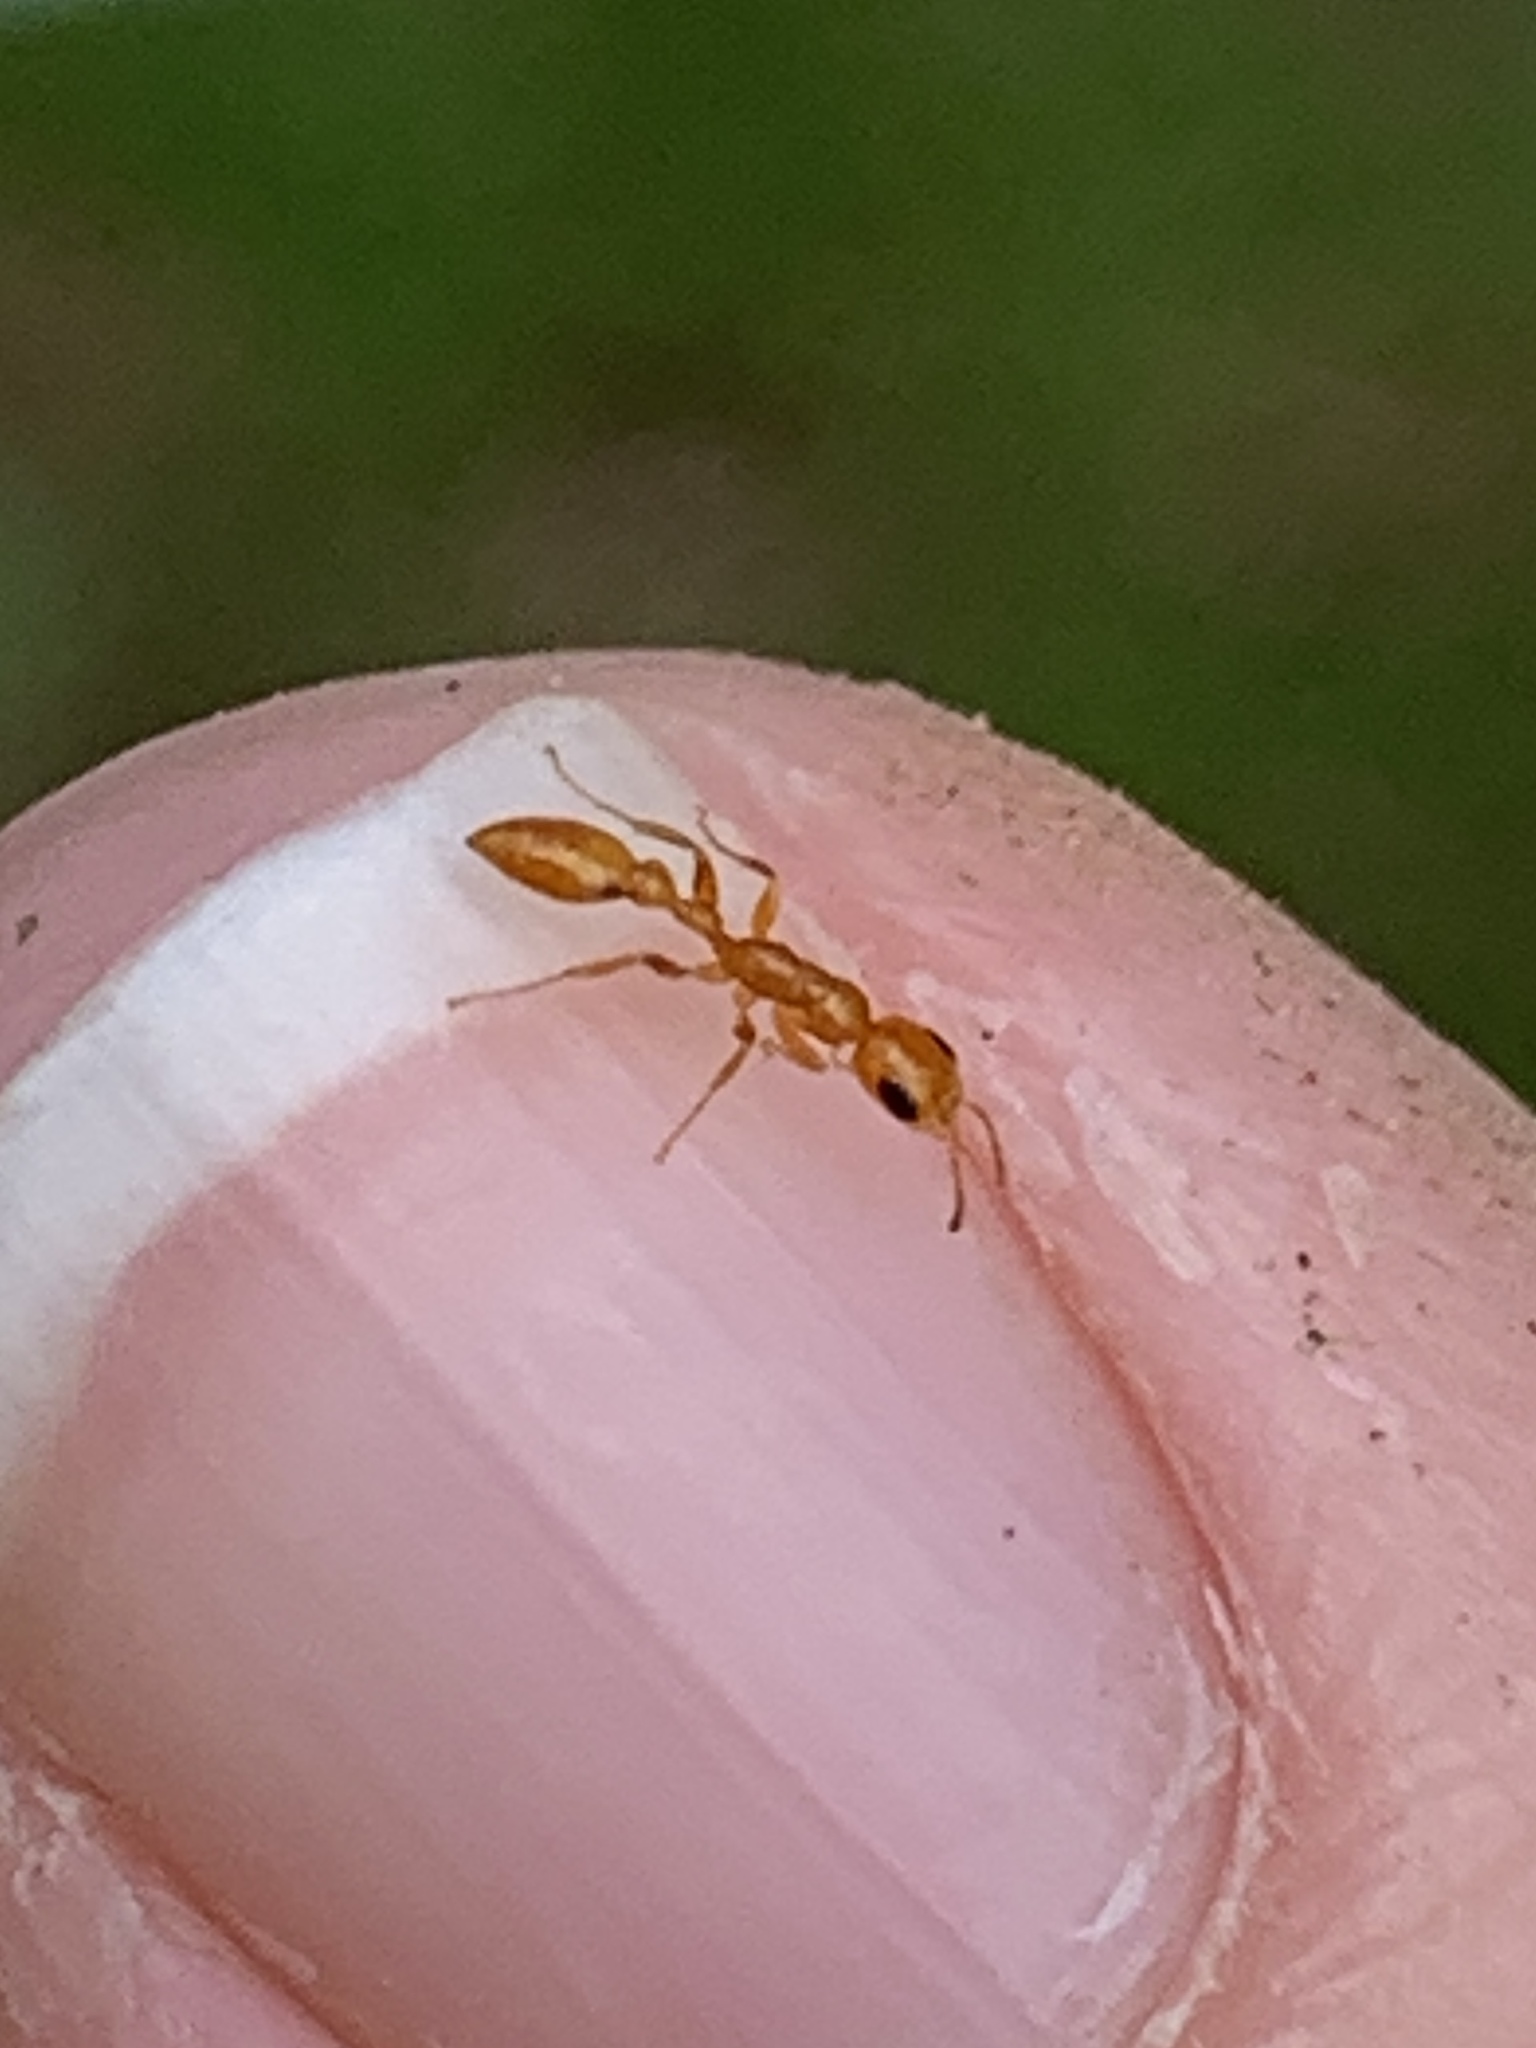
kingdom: Animalia
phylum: Arthropoda
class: Insecta
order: Hymenoptera
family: Formicidae
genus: Pseudomyrmex
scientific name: Pseudomyrmex pallidus
